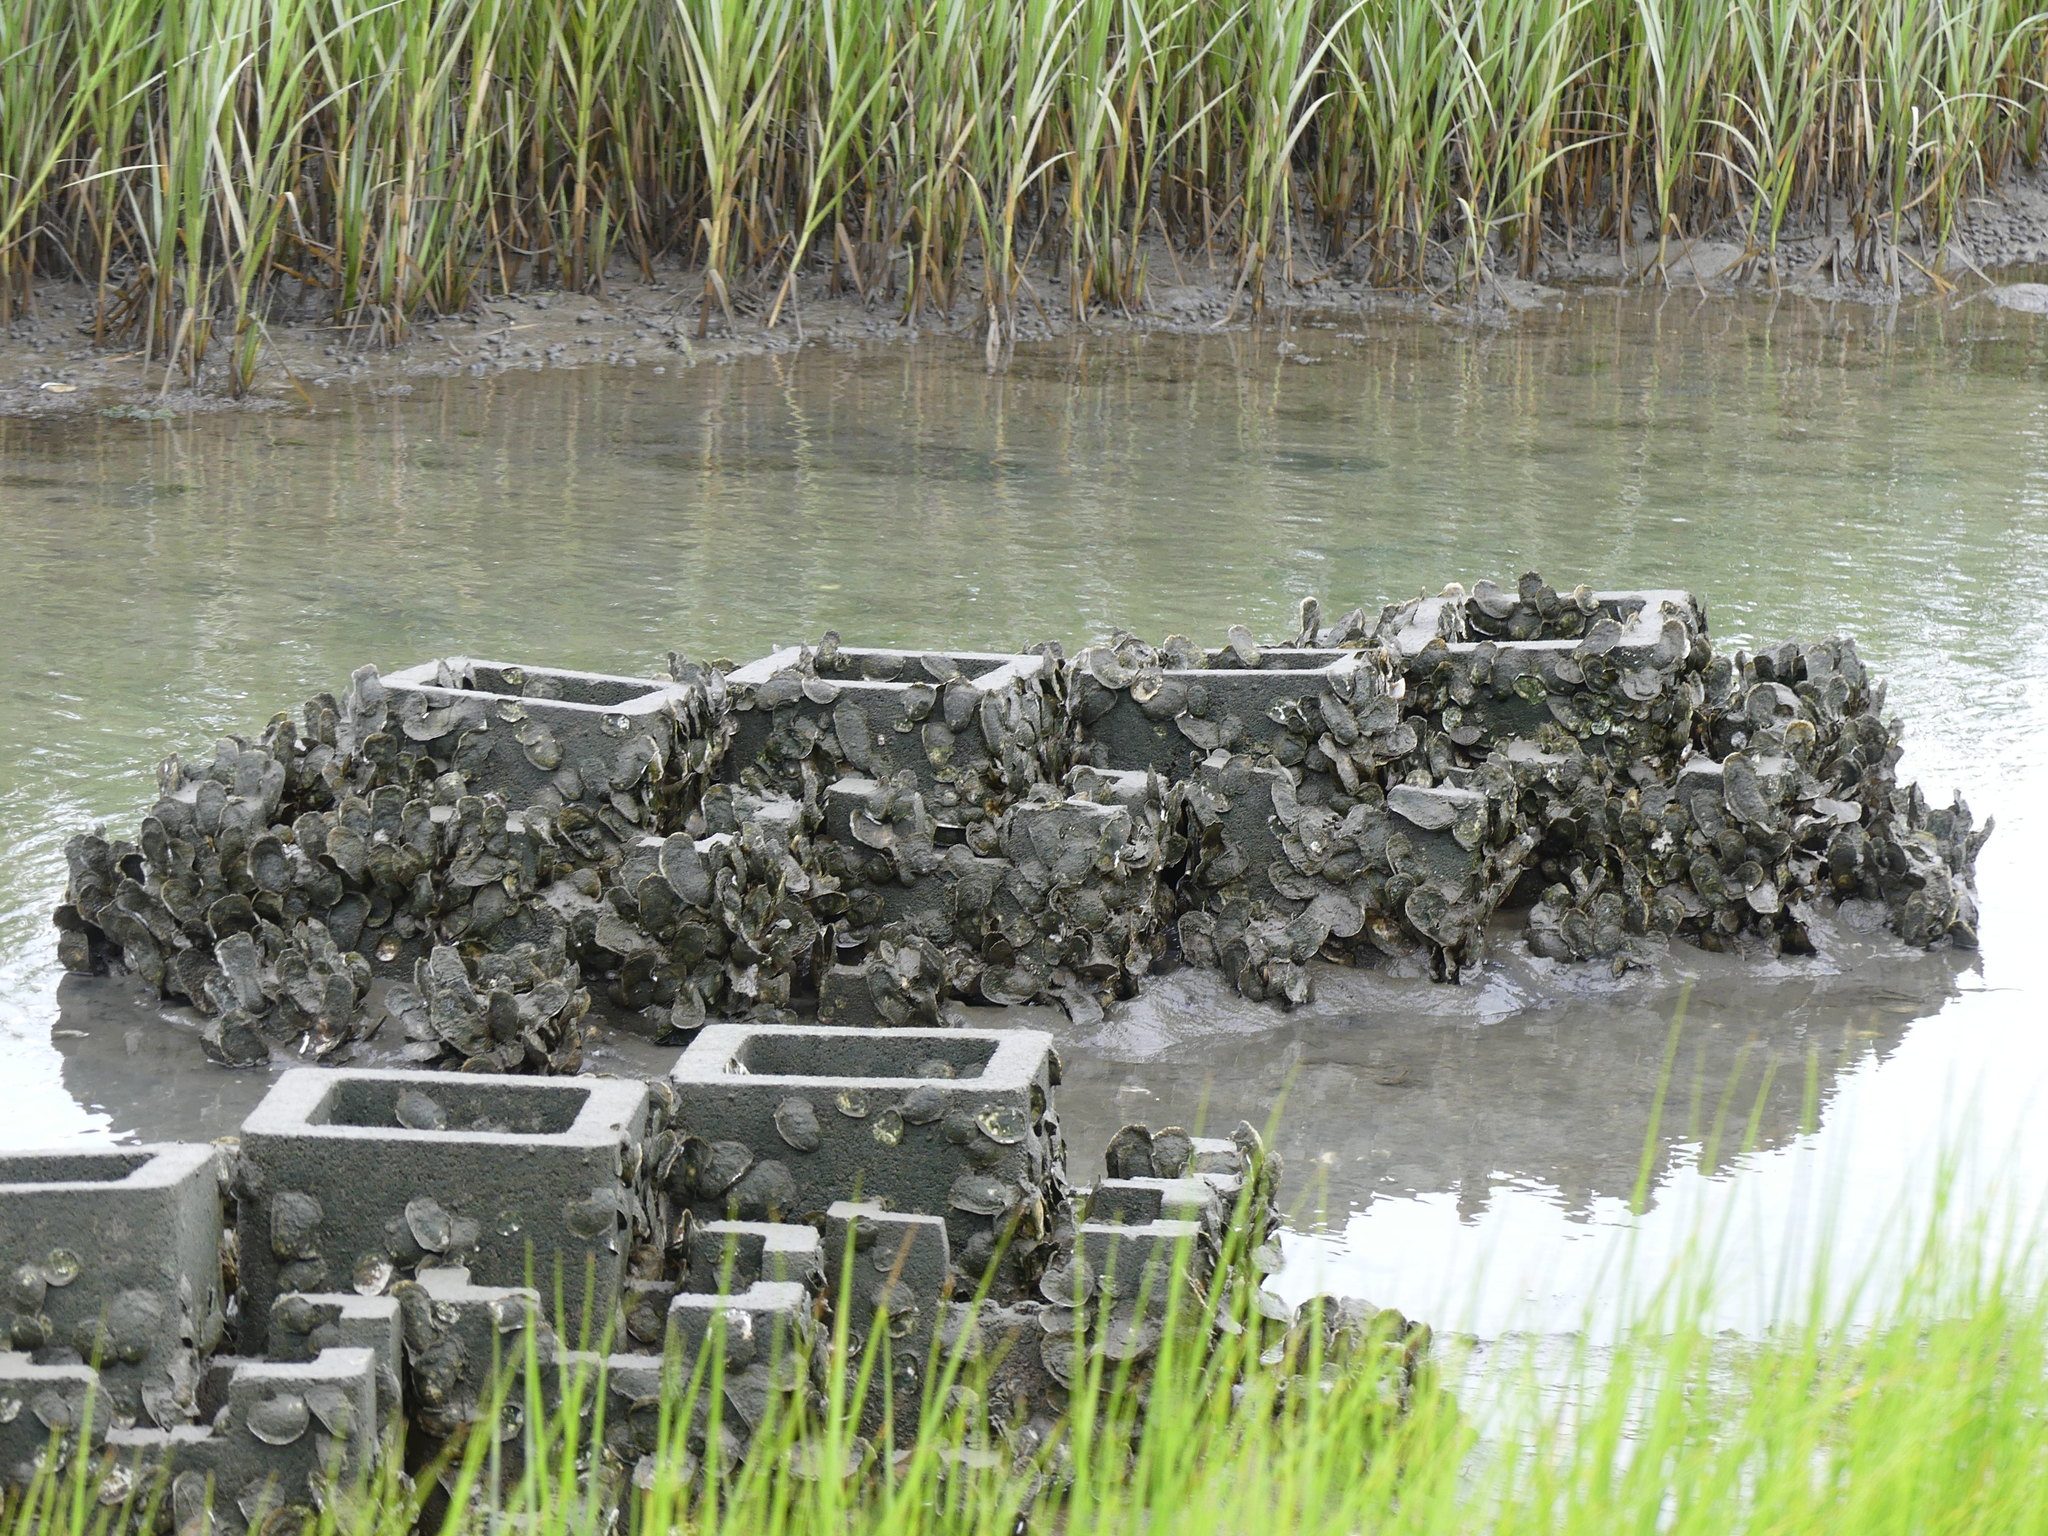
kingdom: Animalia
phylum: Mollusca
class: Bivalvia
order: Ostreida
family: Ostreidae
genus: Crassostrea
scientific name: Crassostrea virginica
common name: American oyster
